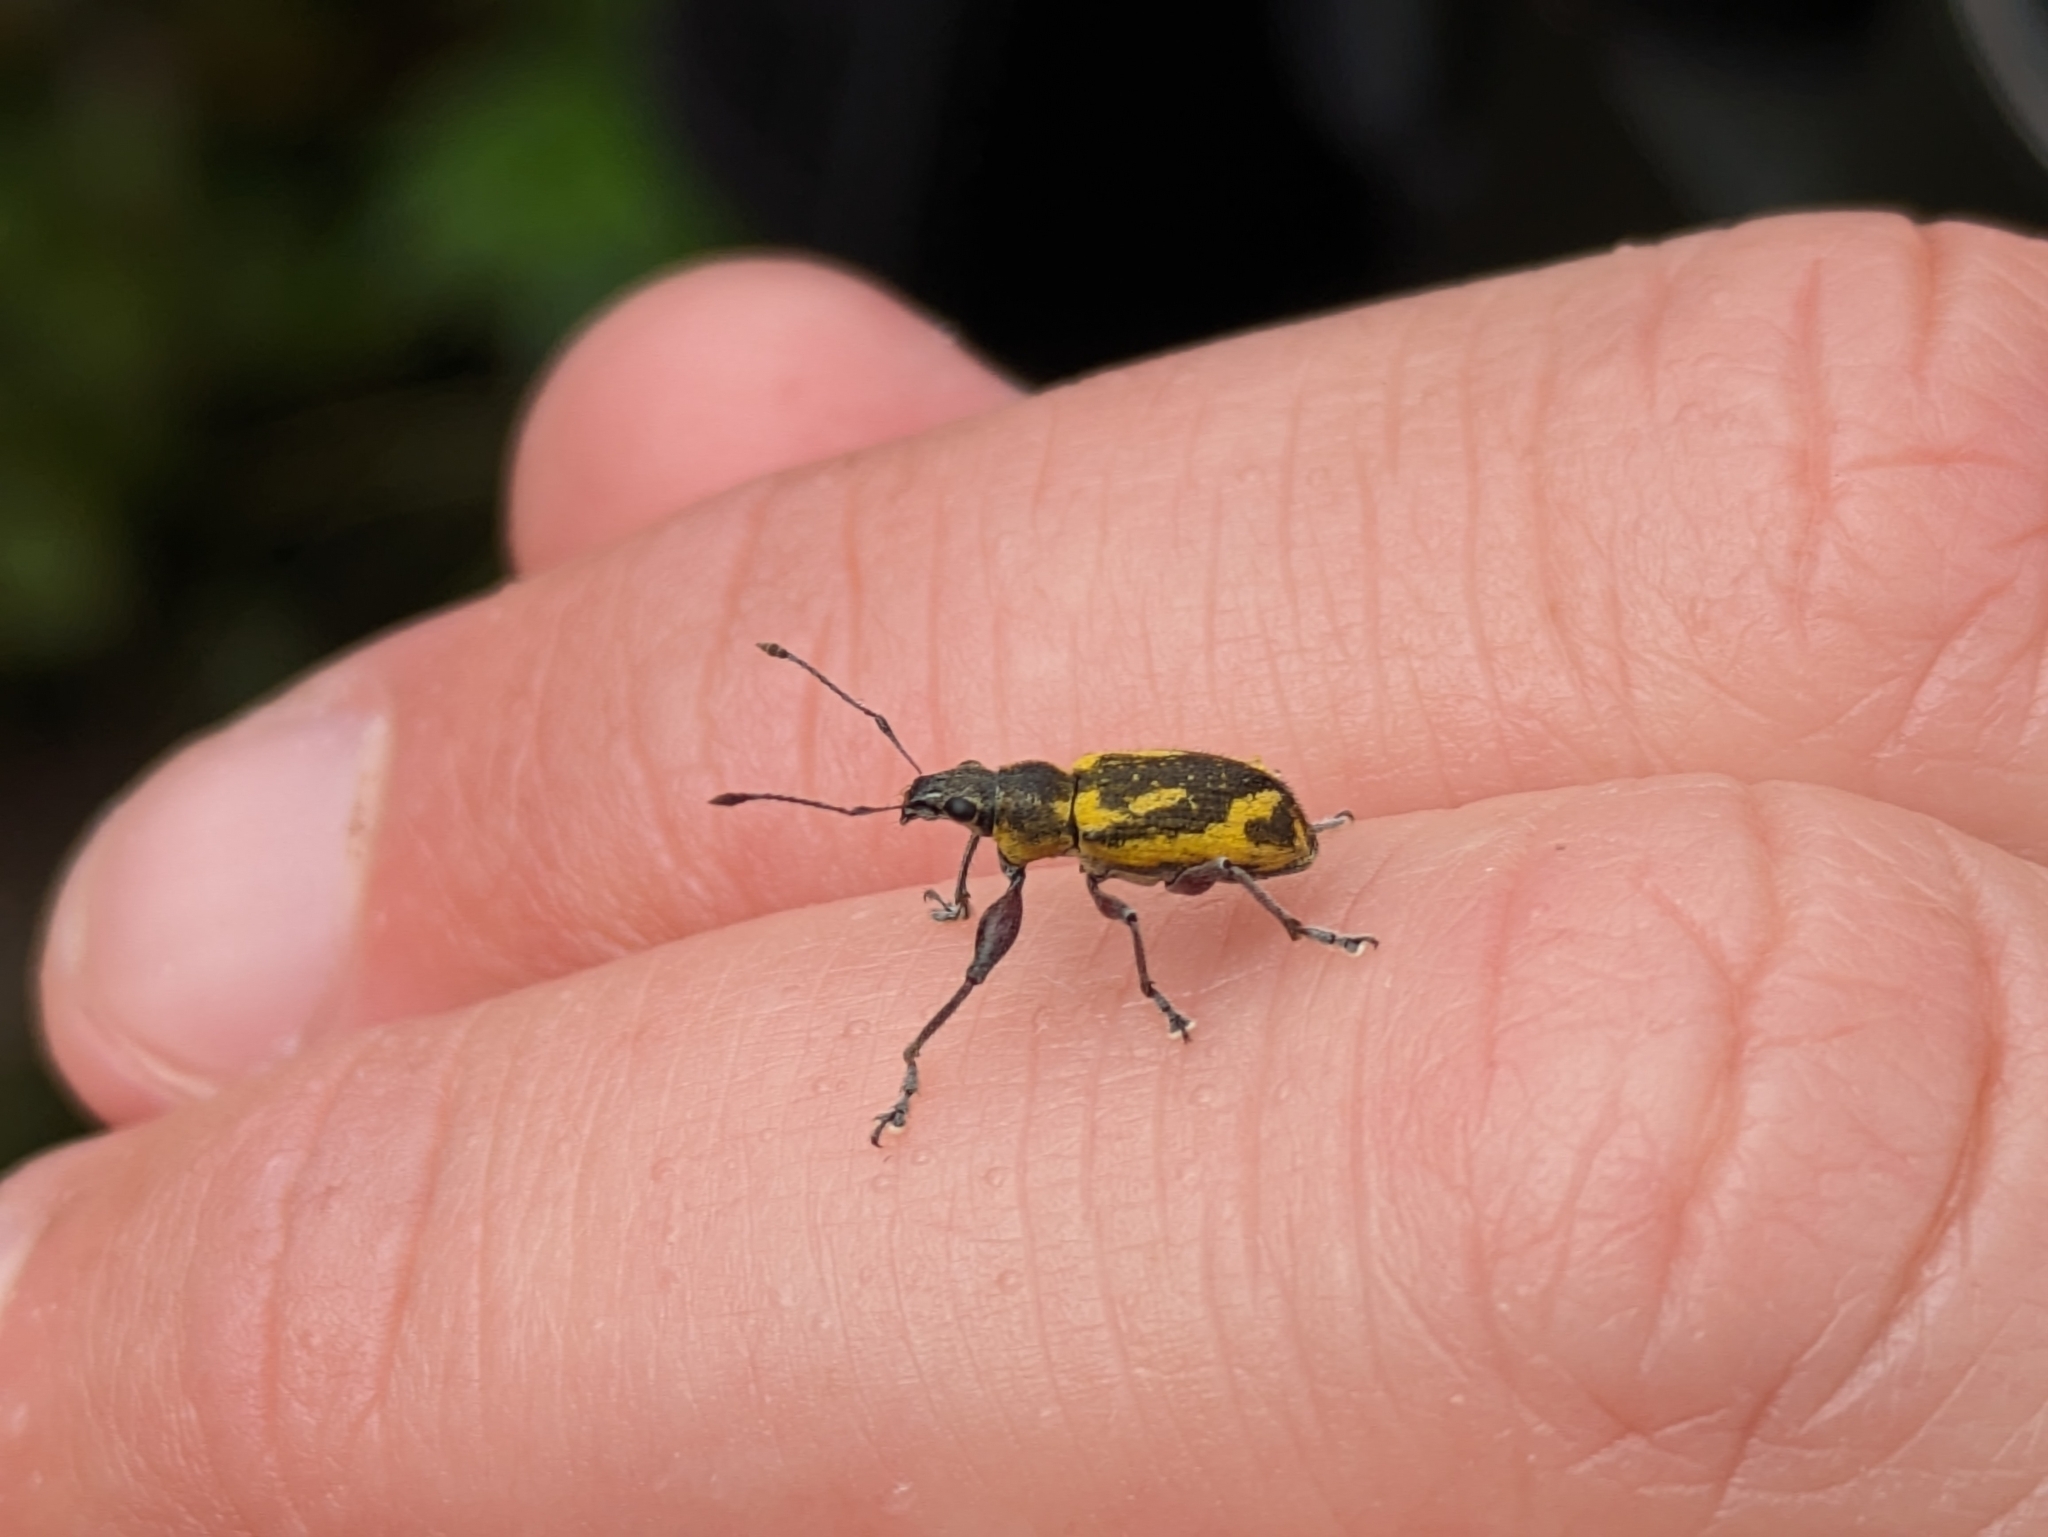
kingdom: Animalia
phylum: Arthropoda
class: Insecta
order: Coleoptera
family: Curculionidae
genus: Galapaganus
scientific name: Galapaganus howdenae
